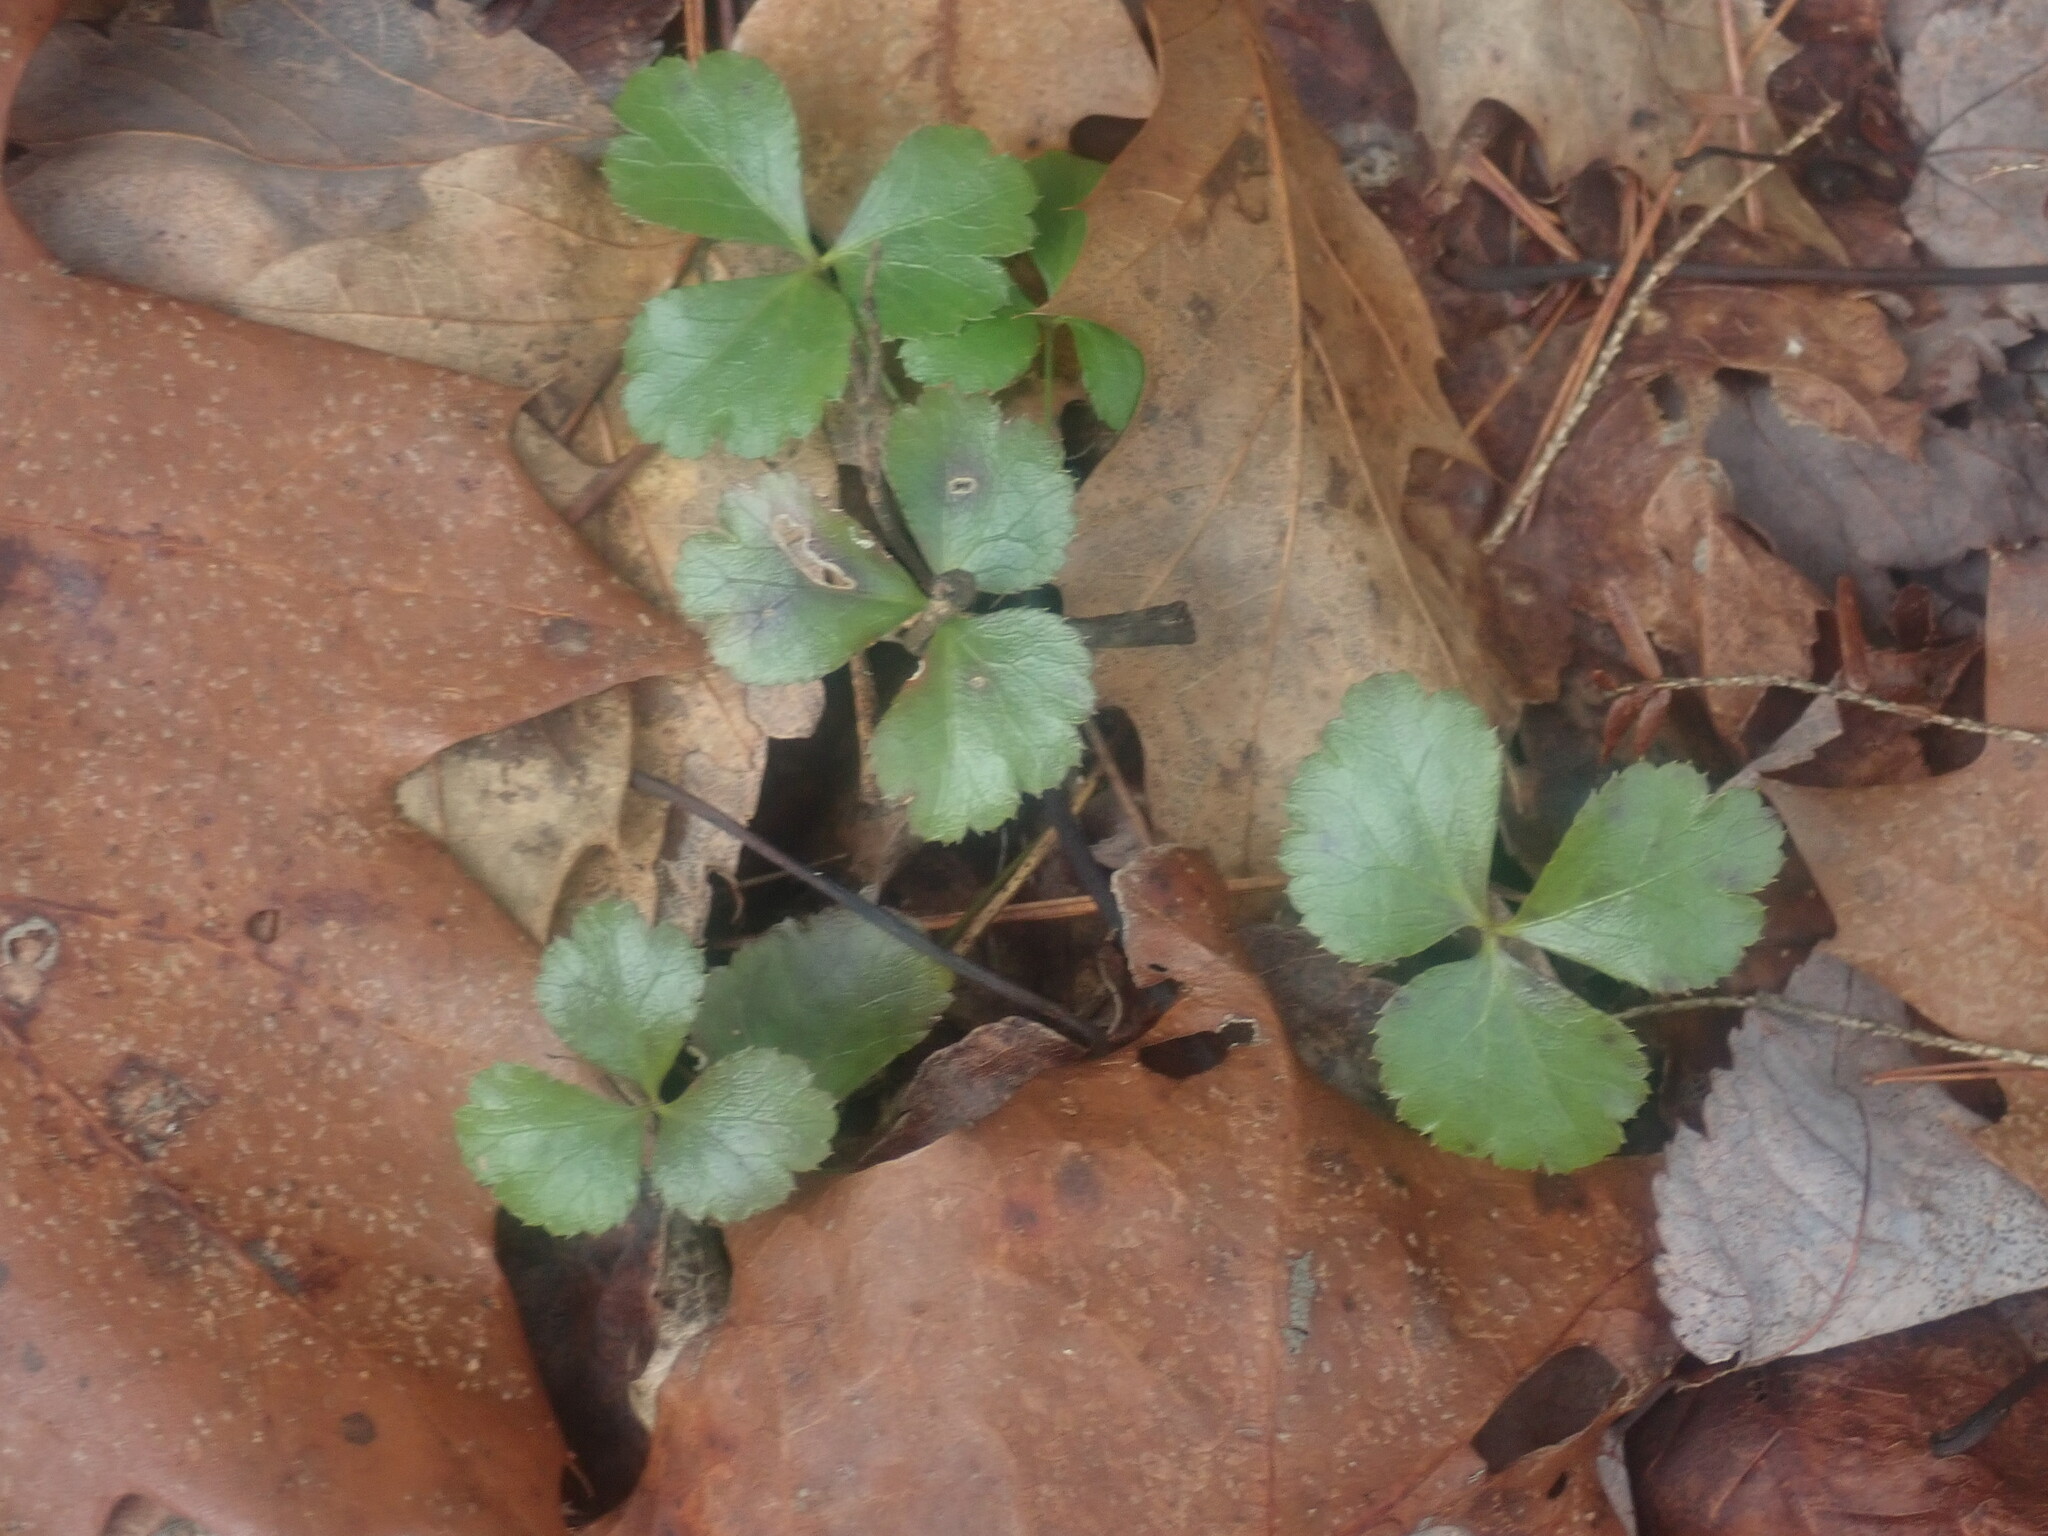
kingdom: Plantae
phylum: Tracheophyta
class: Magnoliopsida
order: Ranunculales
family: Ranunculaceae
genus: Coptis
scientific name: Coptis trifolia
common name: Canker-root
